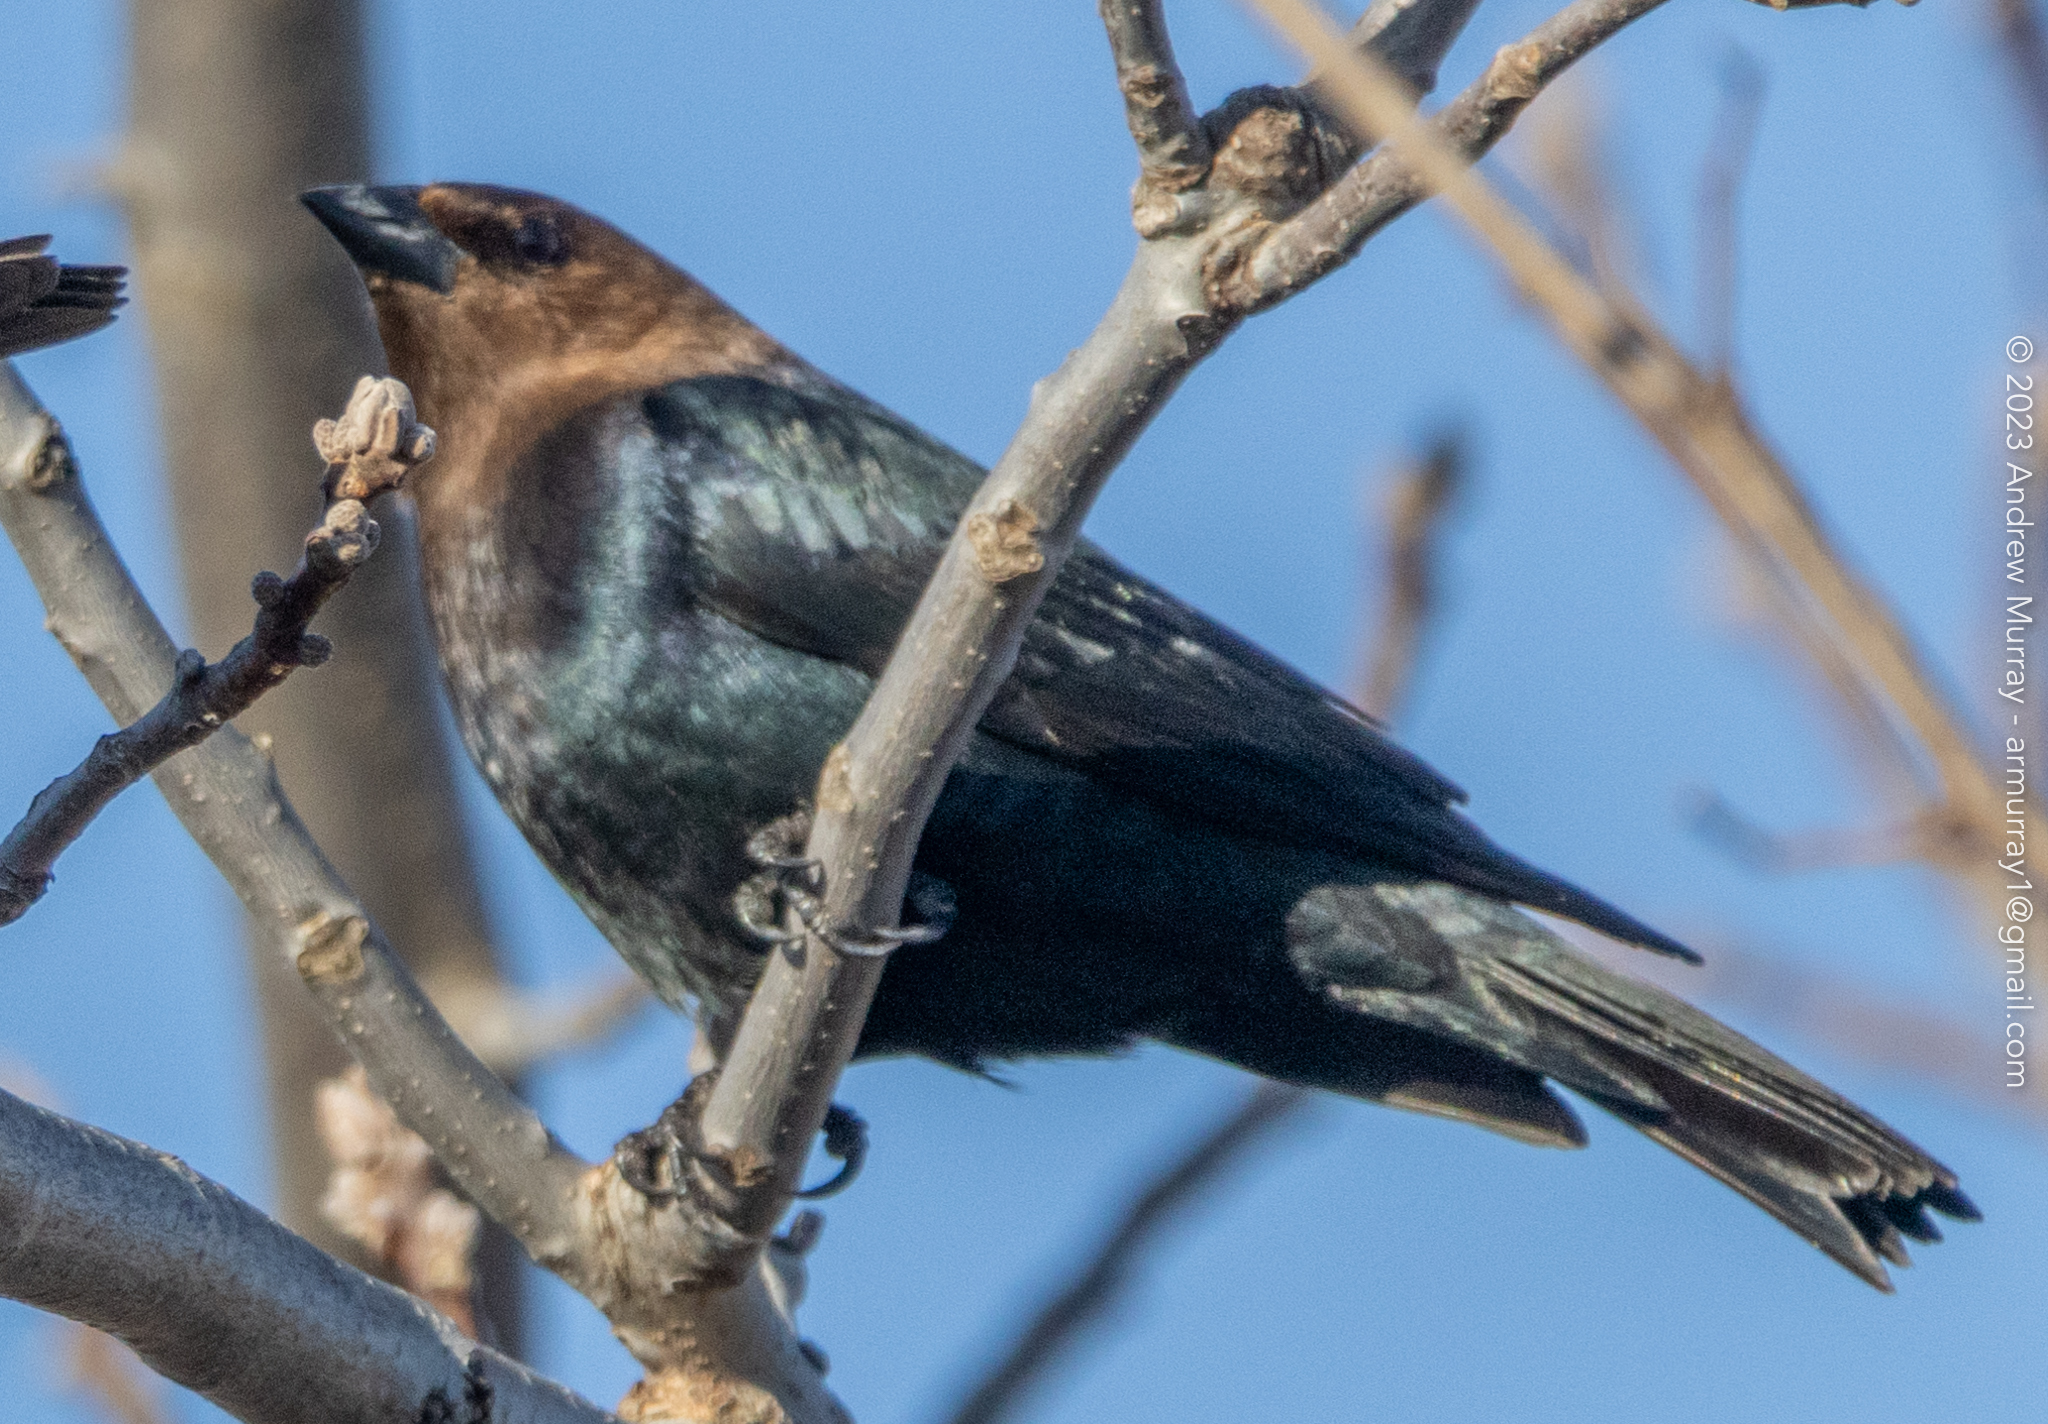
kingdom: Animalia
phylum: Chordata
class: Aves
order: Passeriformes
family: Icteridae
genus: Molothrus
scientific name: Molothrus ater
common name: Brown-headed cowbird
